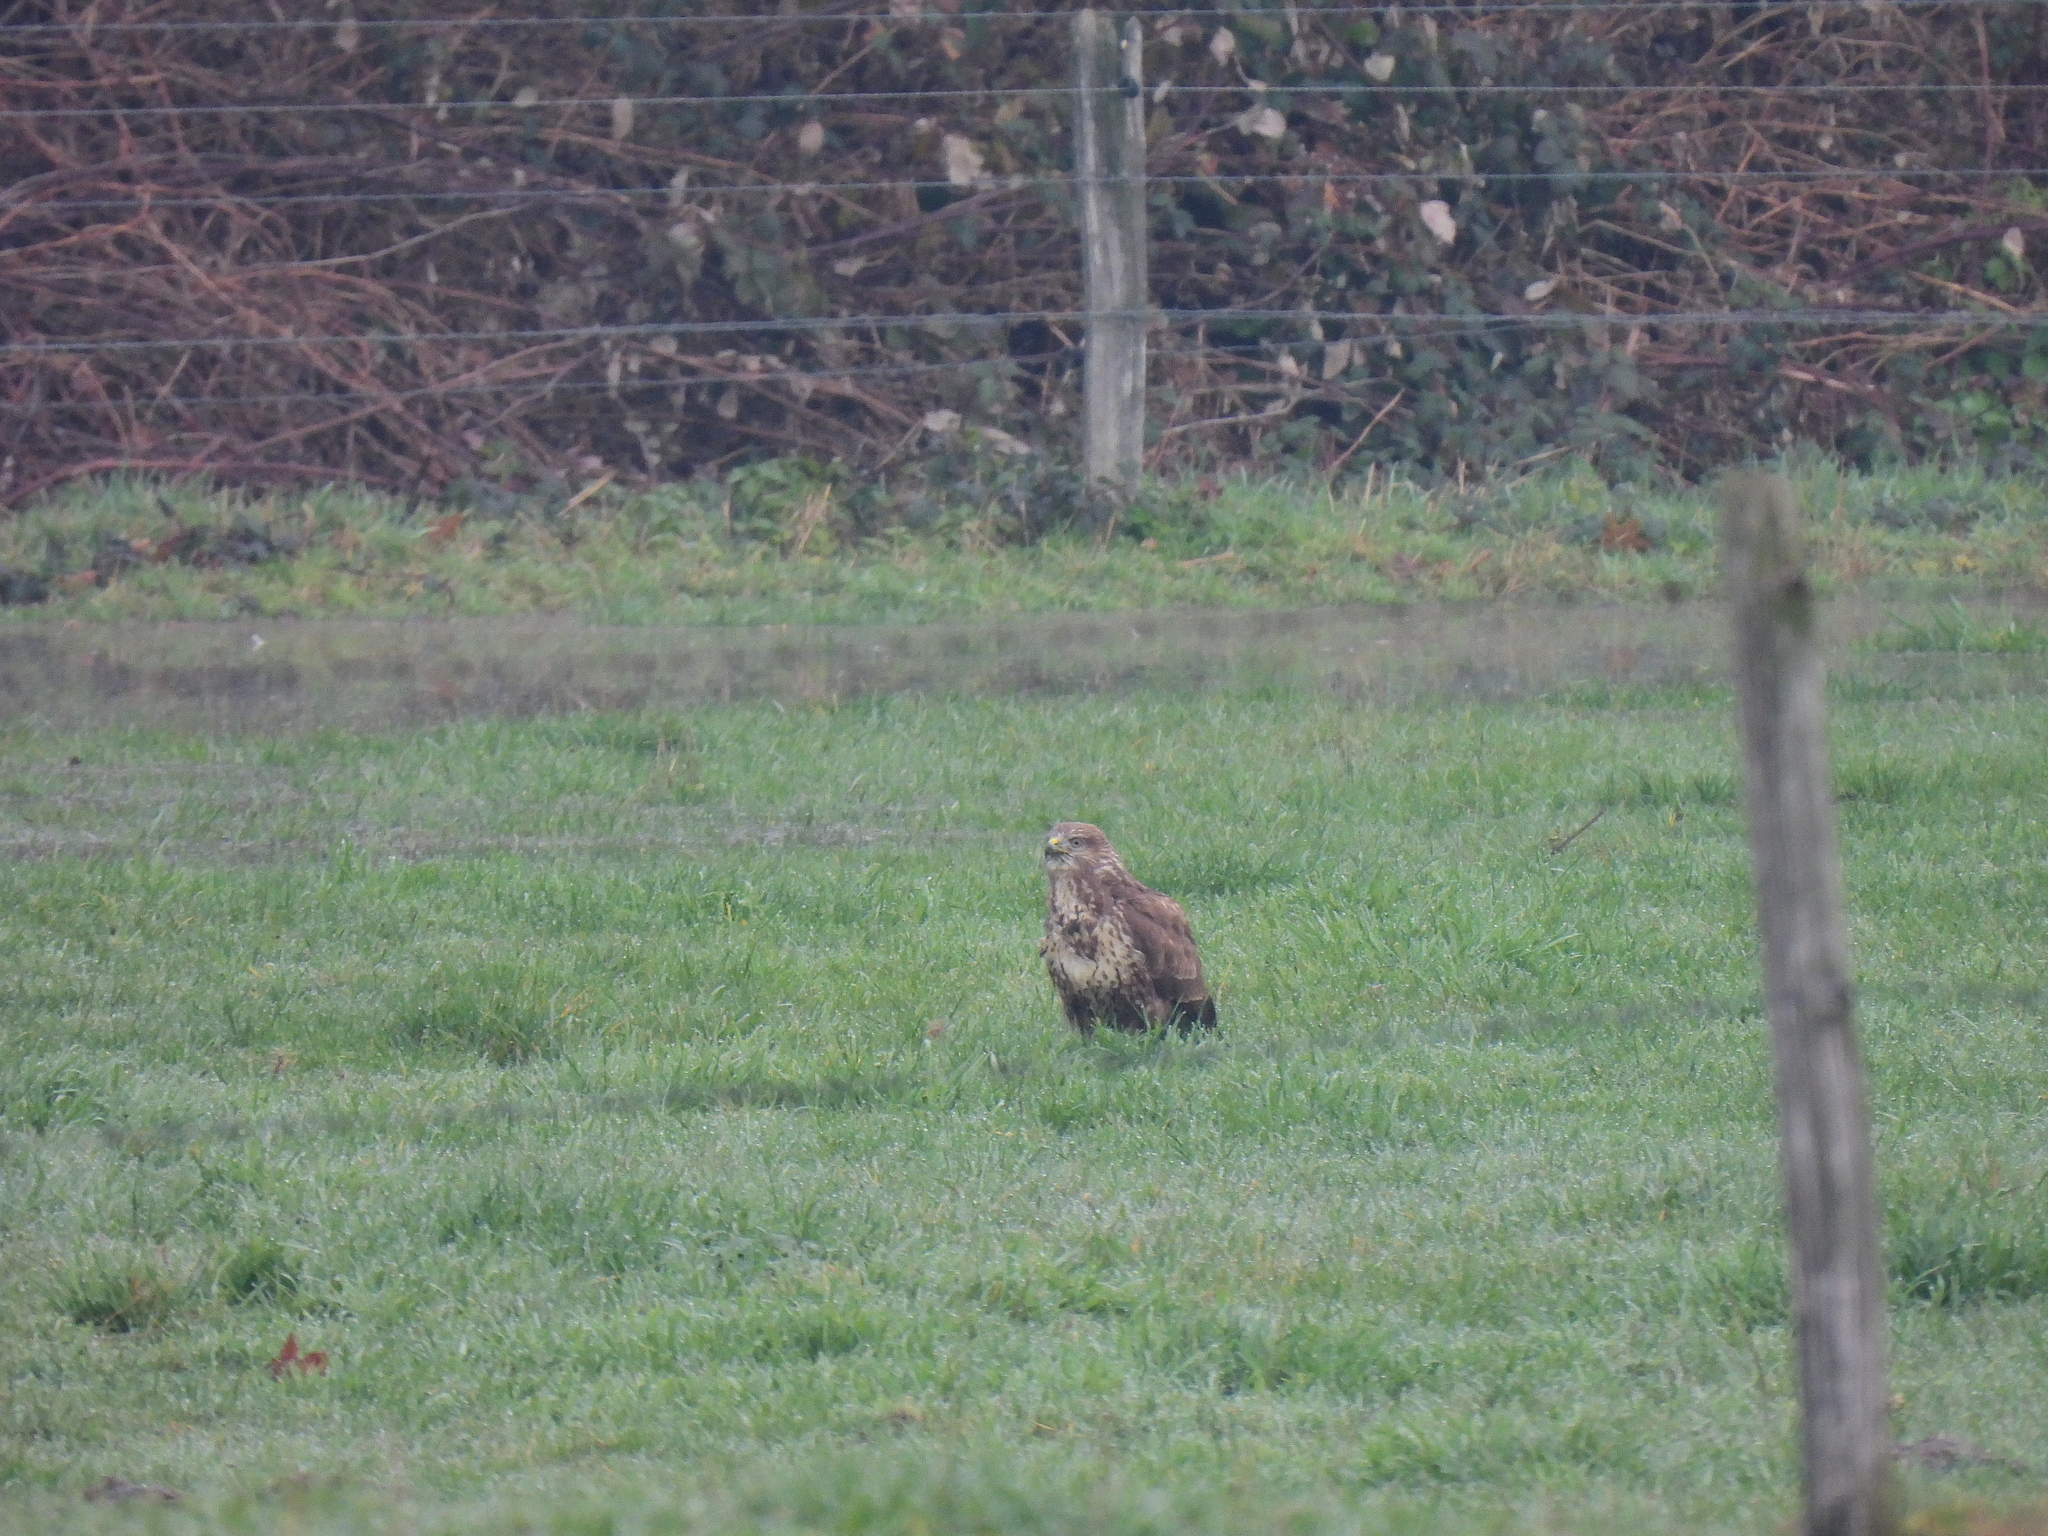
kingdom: Animalia
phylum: Chordata
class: Aves
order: Accipitriformes
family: Accipitridae
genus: Buteo
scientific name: Buteo buteo
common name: Common buzzard
